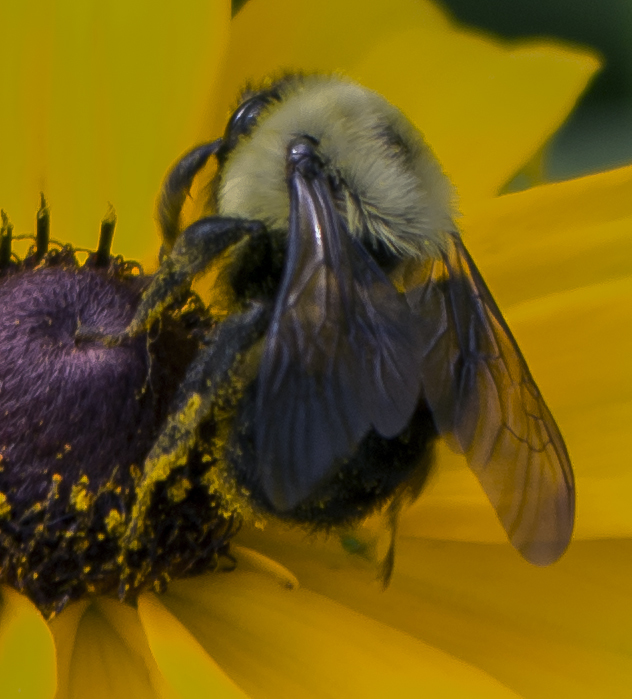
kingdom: Animalia
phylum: Arthropoda
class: Insecta
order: Hymenoptera
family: Apidae
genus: Bombus
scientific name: Bombus griseocollis
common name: Brown-belted bumble bee
